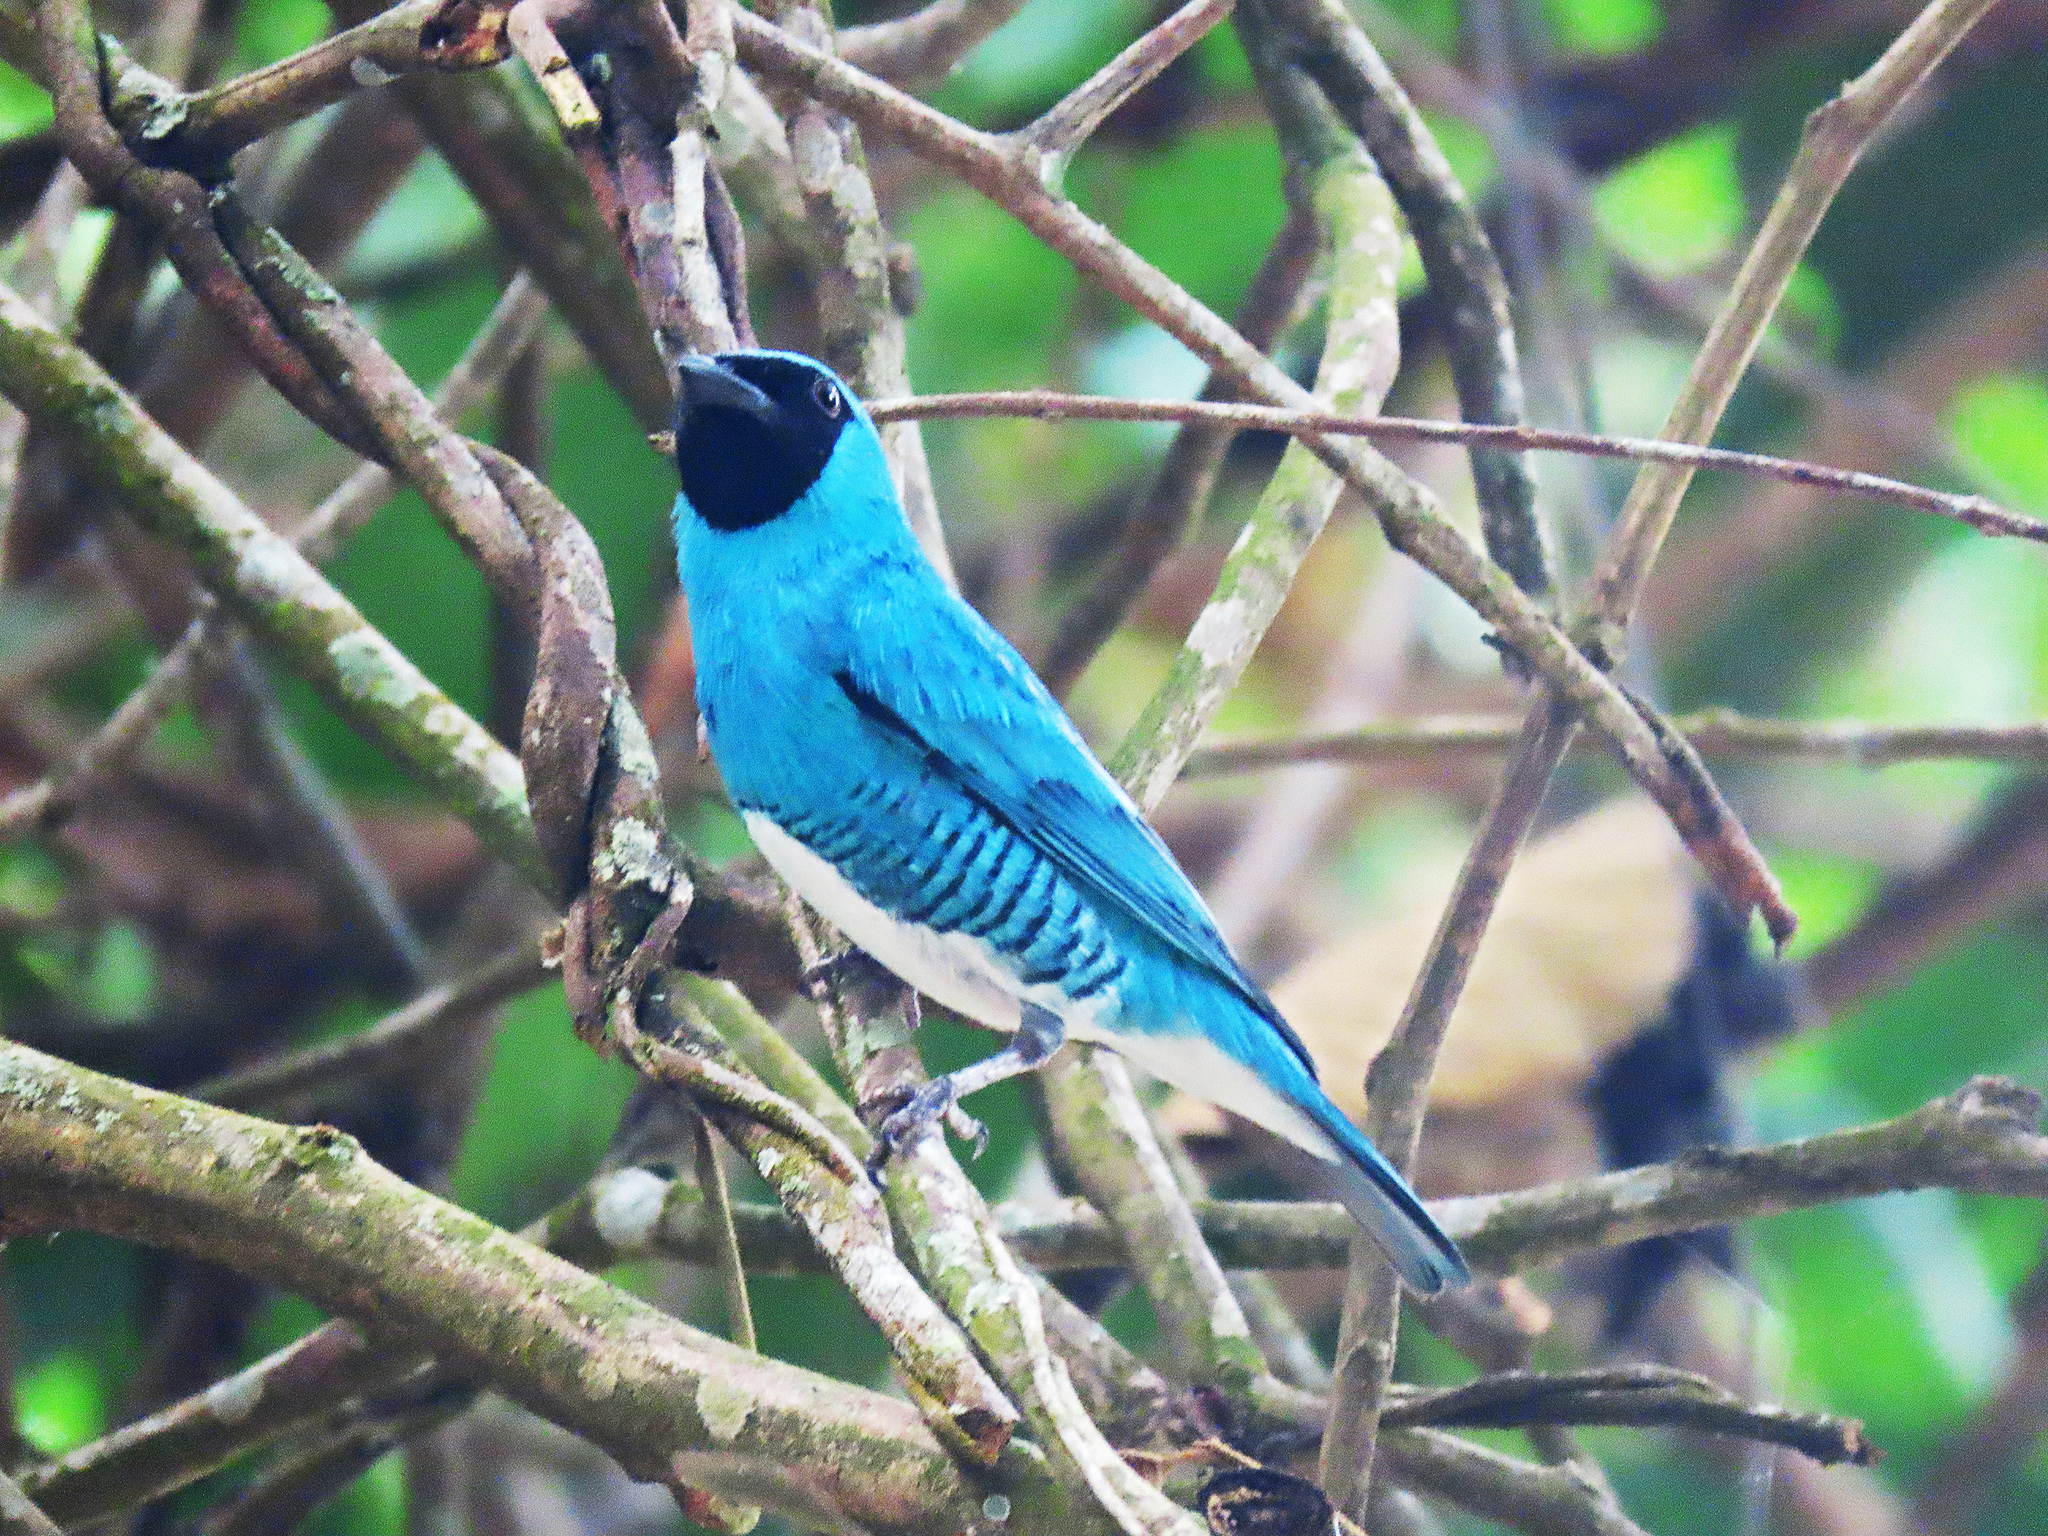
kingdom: Animalia
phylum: Chordata
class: Aves
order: Passeriformes
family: Thraupidae
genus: Tersina
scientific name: Tersina viridis
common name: Swallow tanager
